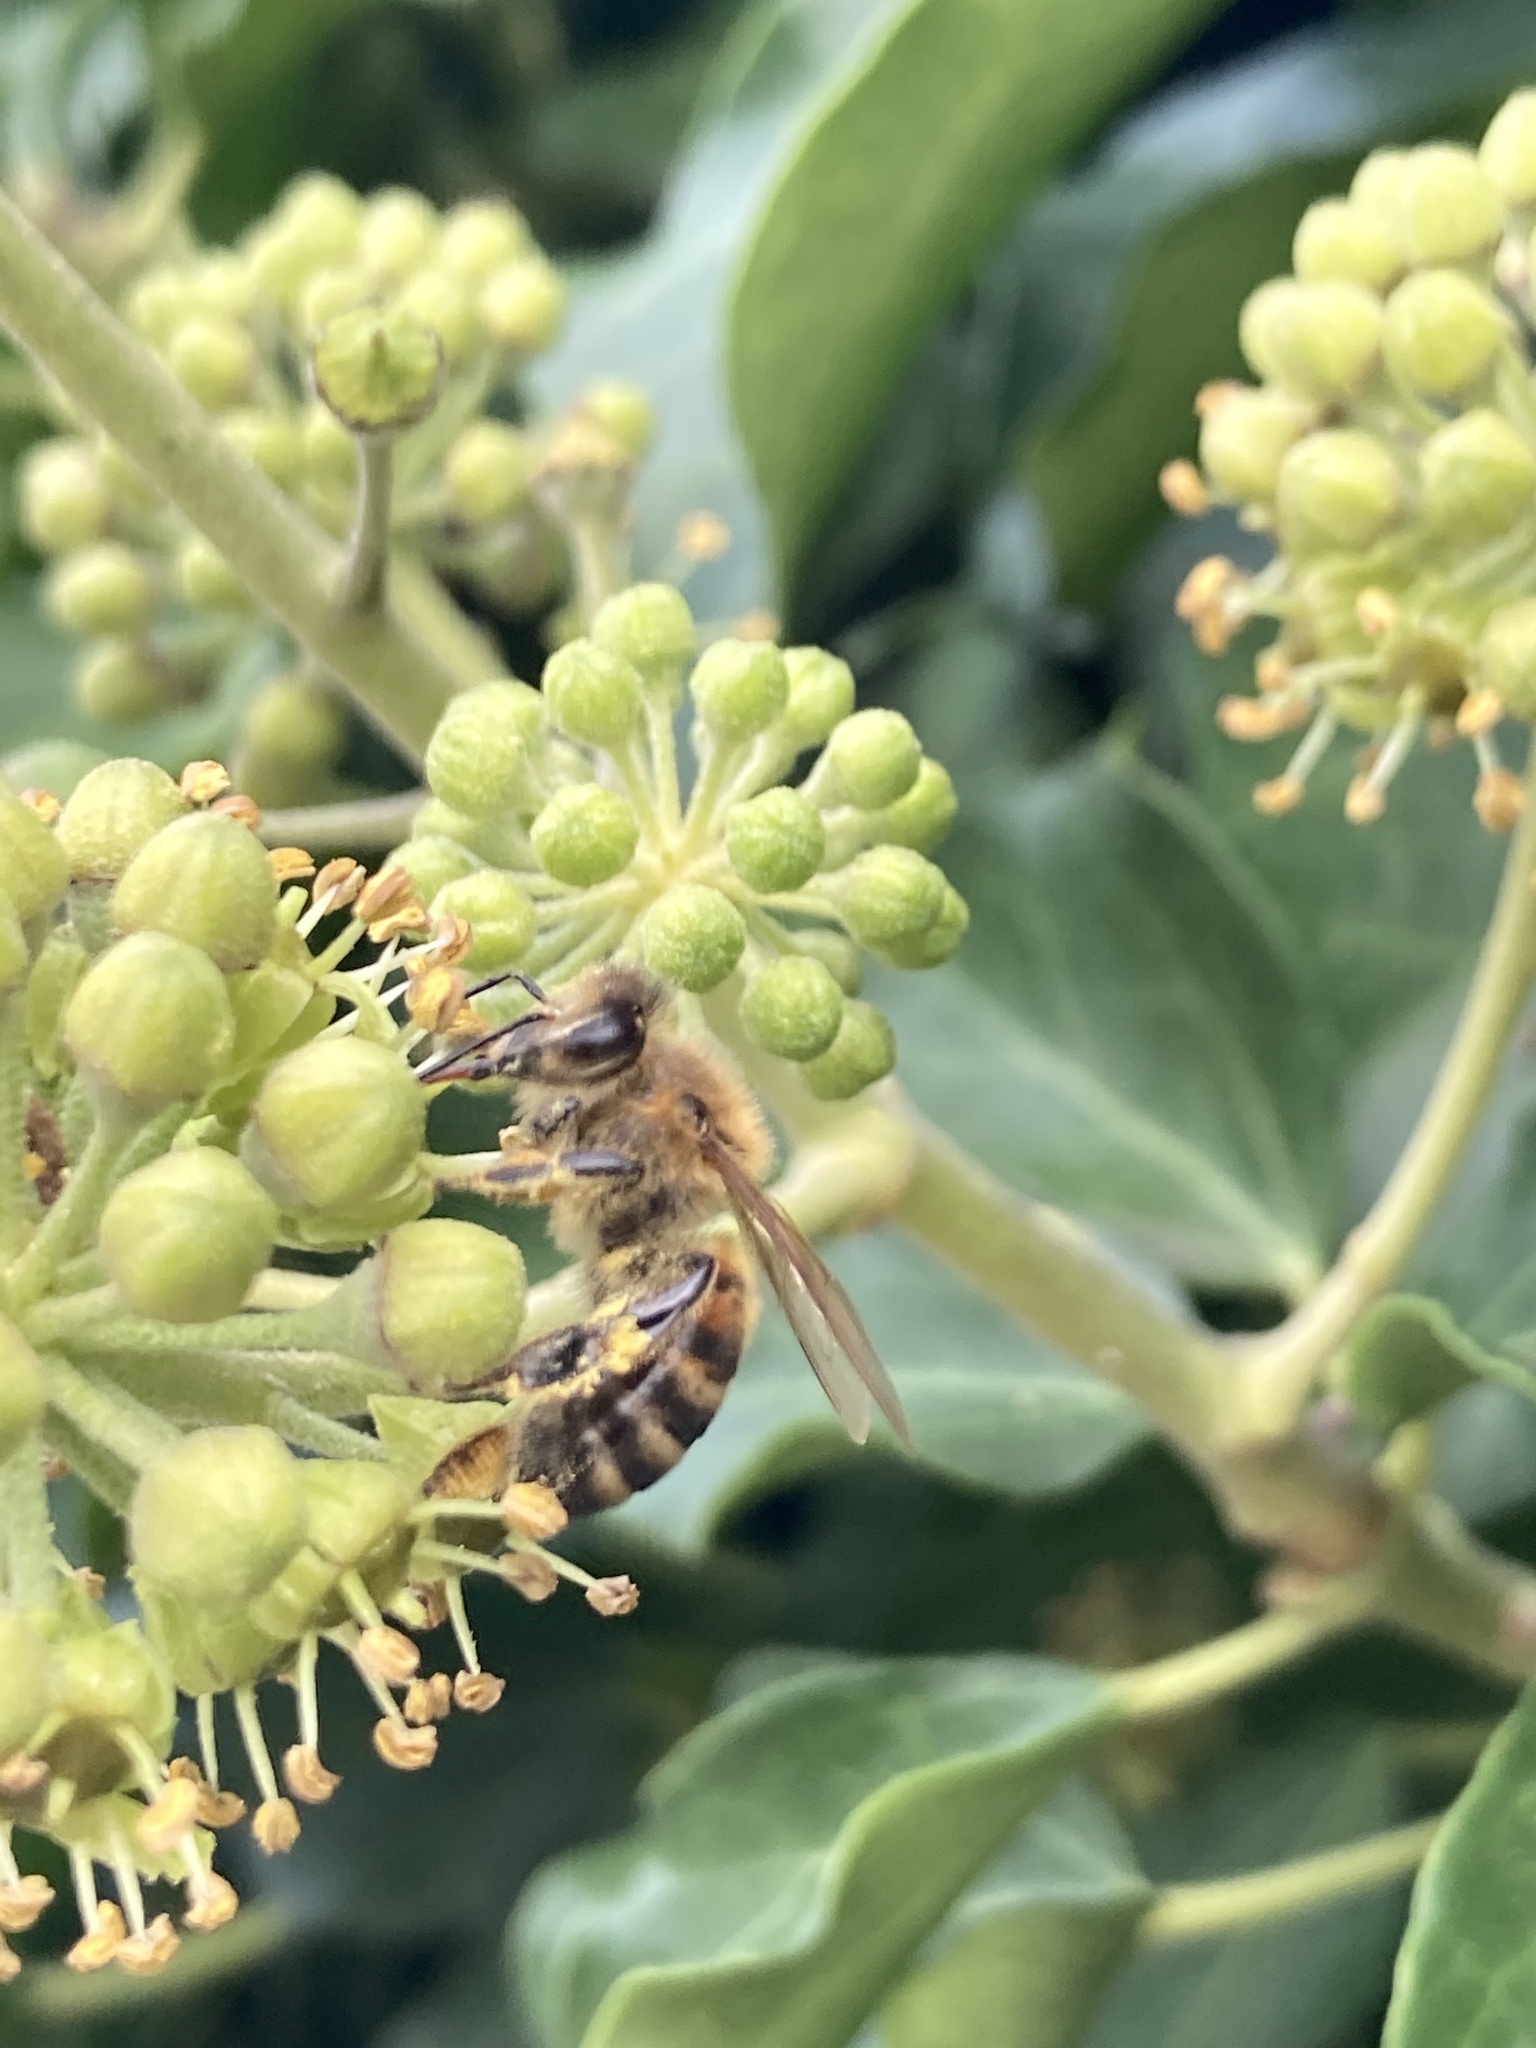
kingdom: Animalia
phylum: Arthropoda
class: Insecta
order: Hymenoptera
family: Apidae
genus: Apis
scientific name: Apis mellifera
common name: Honey bee
